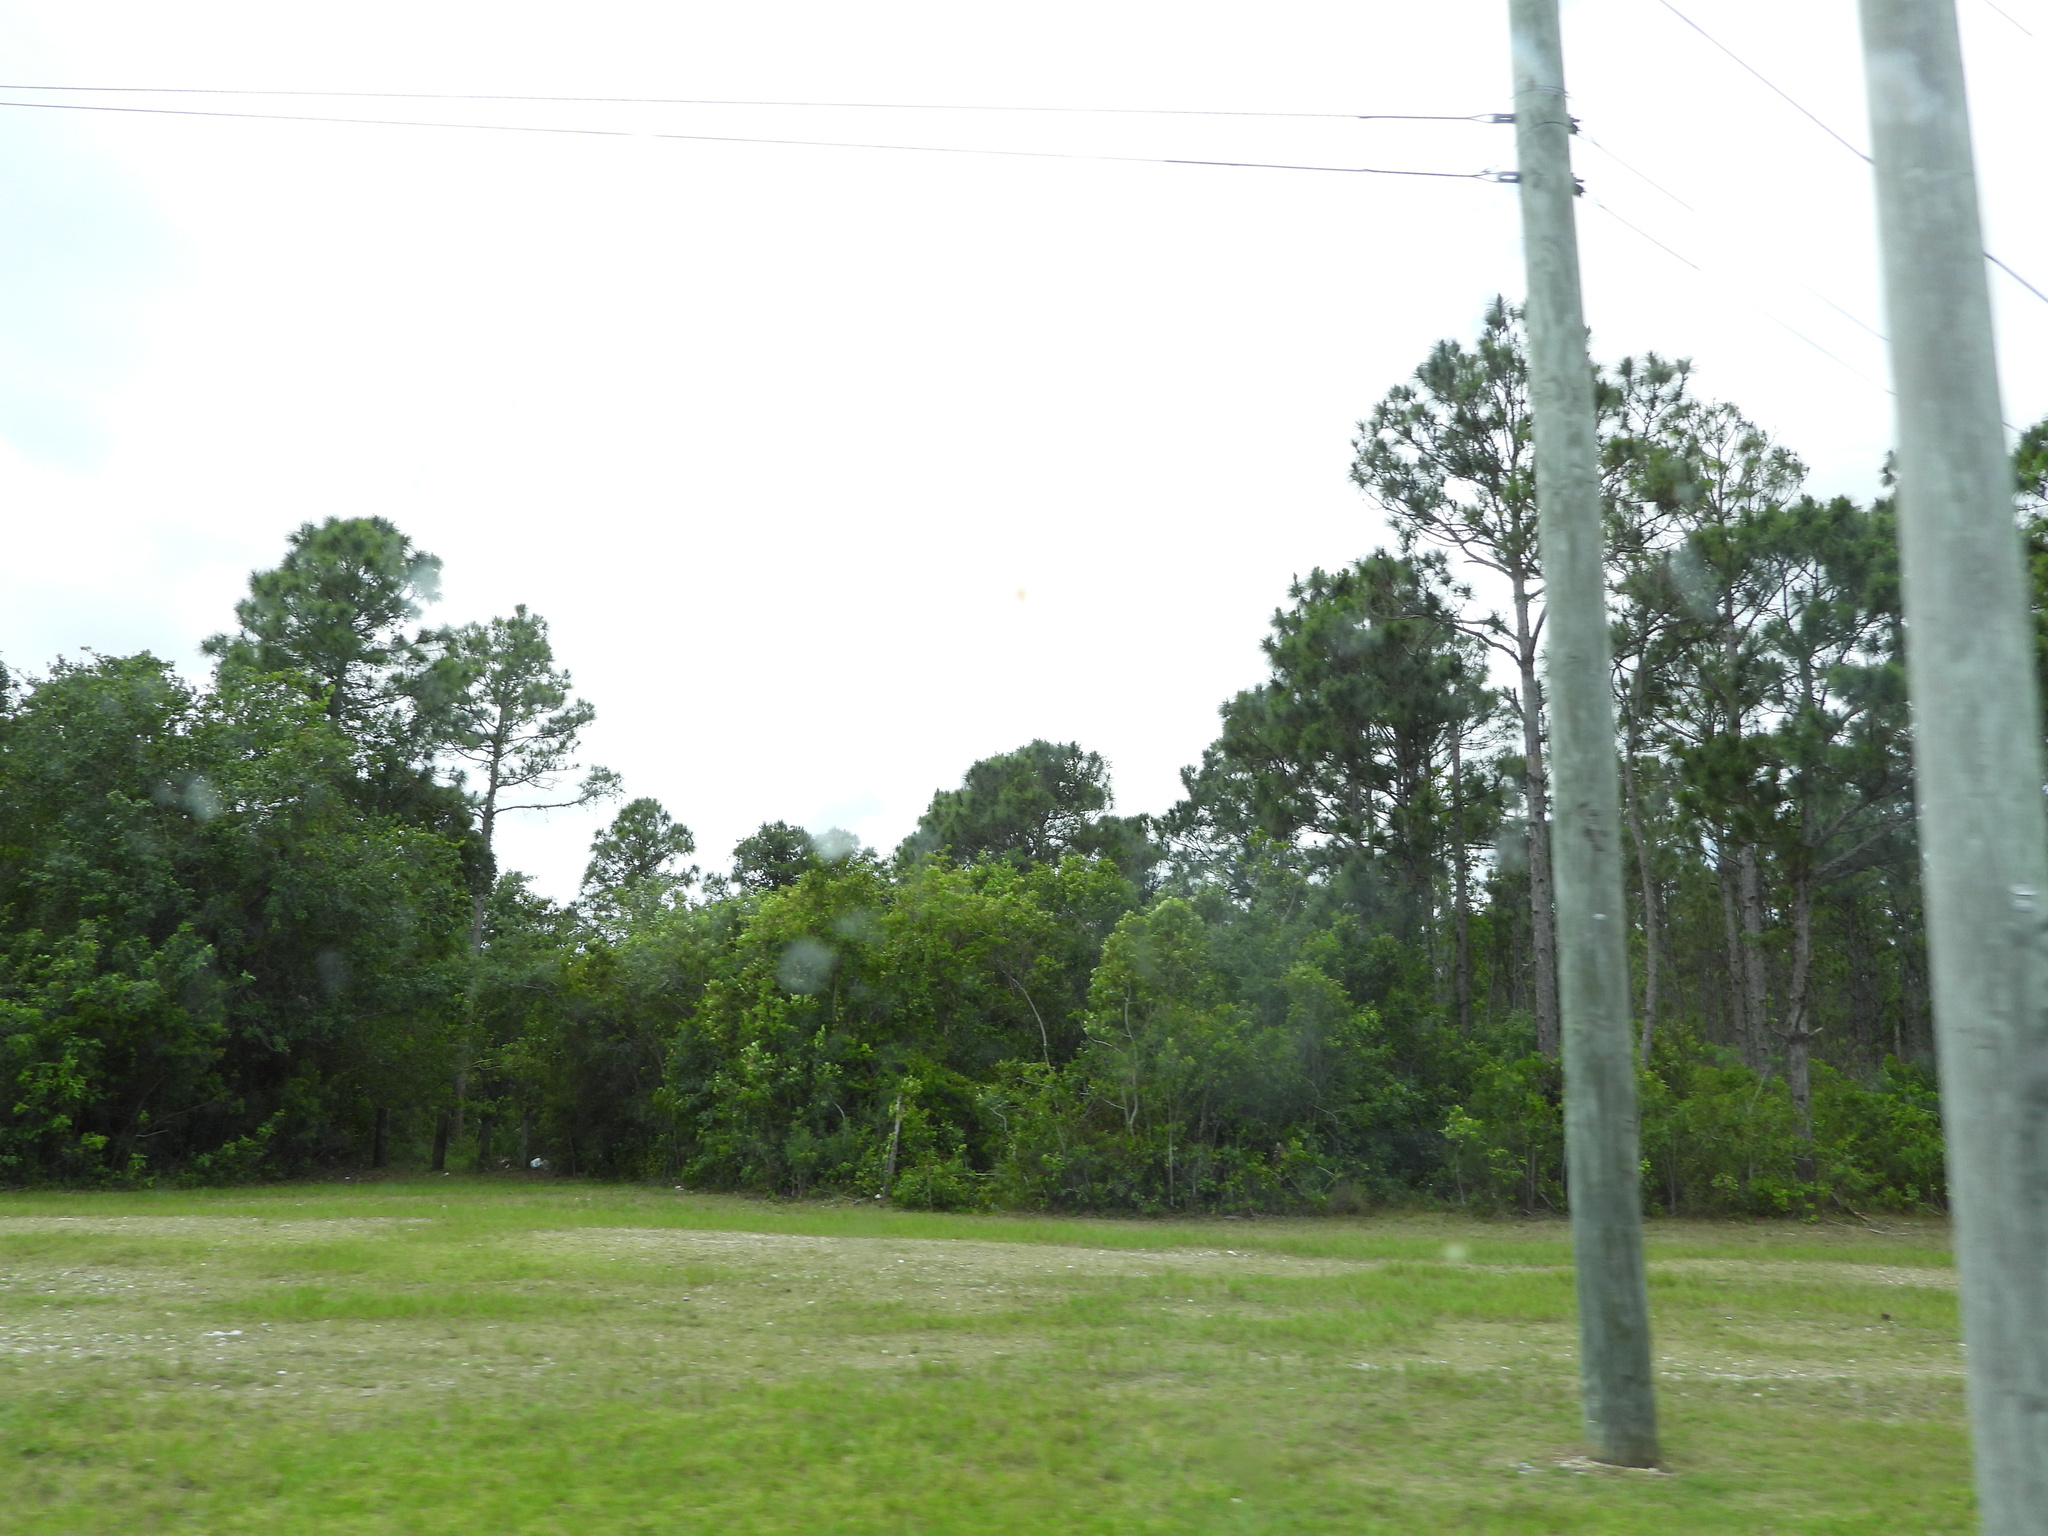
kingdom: Plantae
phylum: Tracheophyta
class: Pinopsida
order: Pinales
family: Pinaceae
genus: Pinus
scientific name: Pinus elliottii
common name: Slash pine
